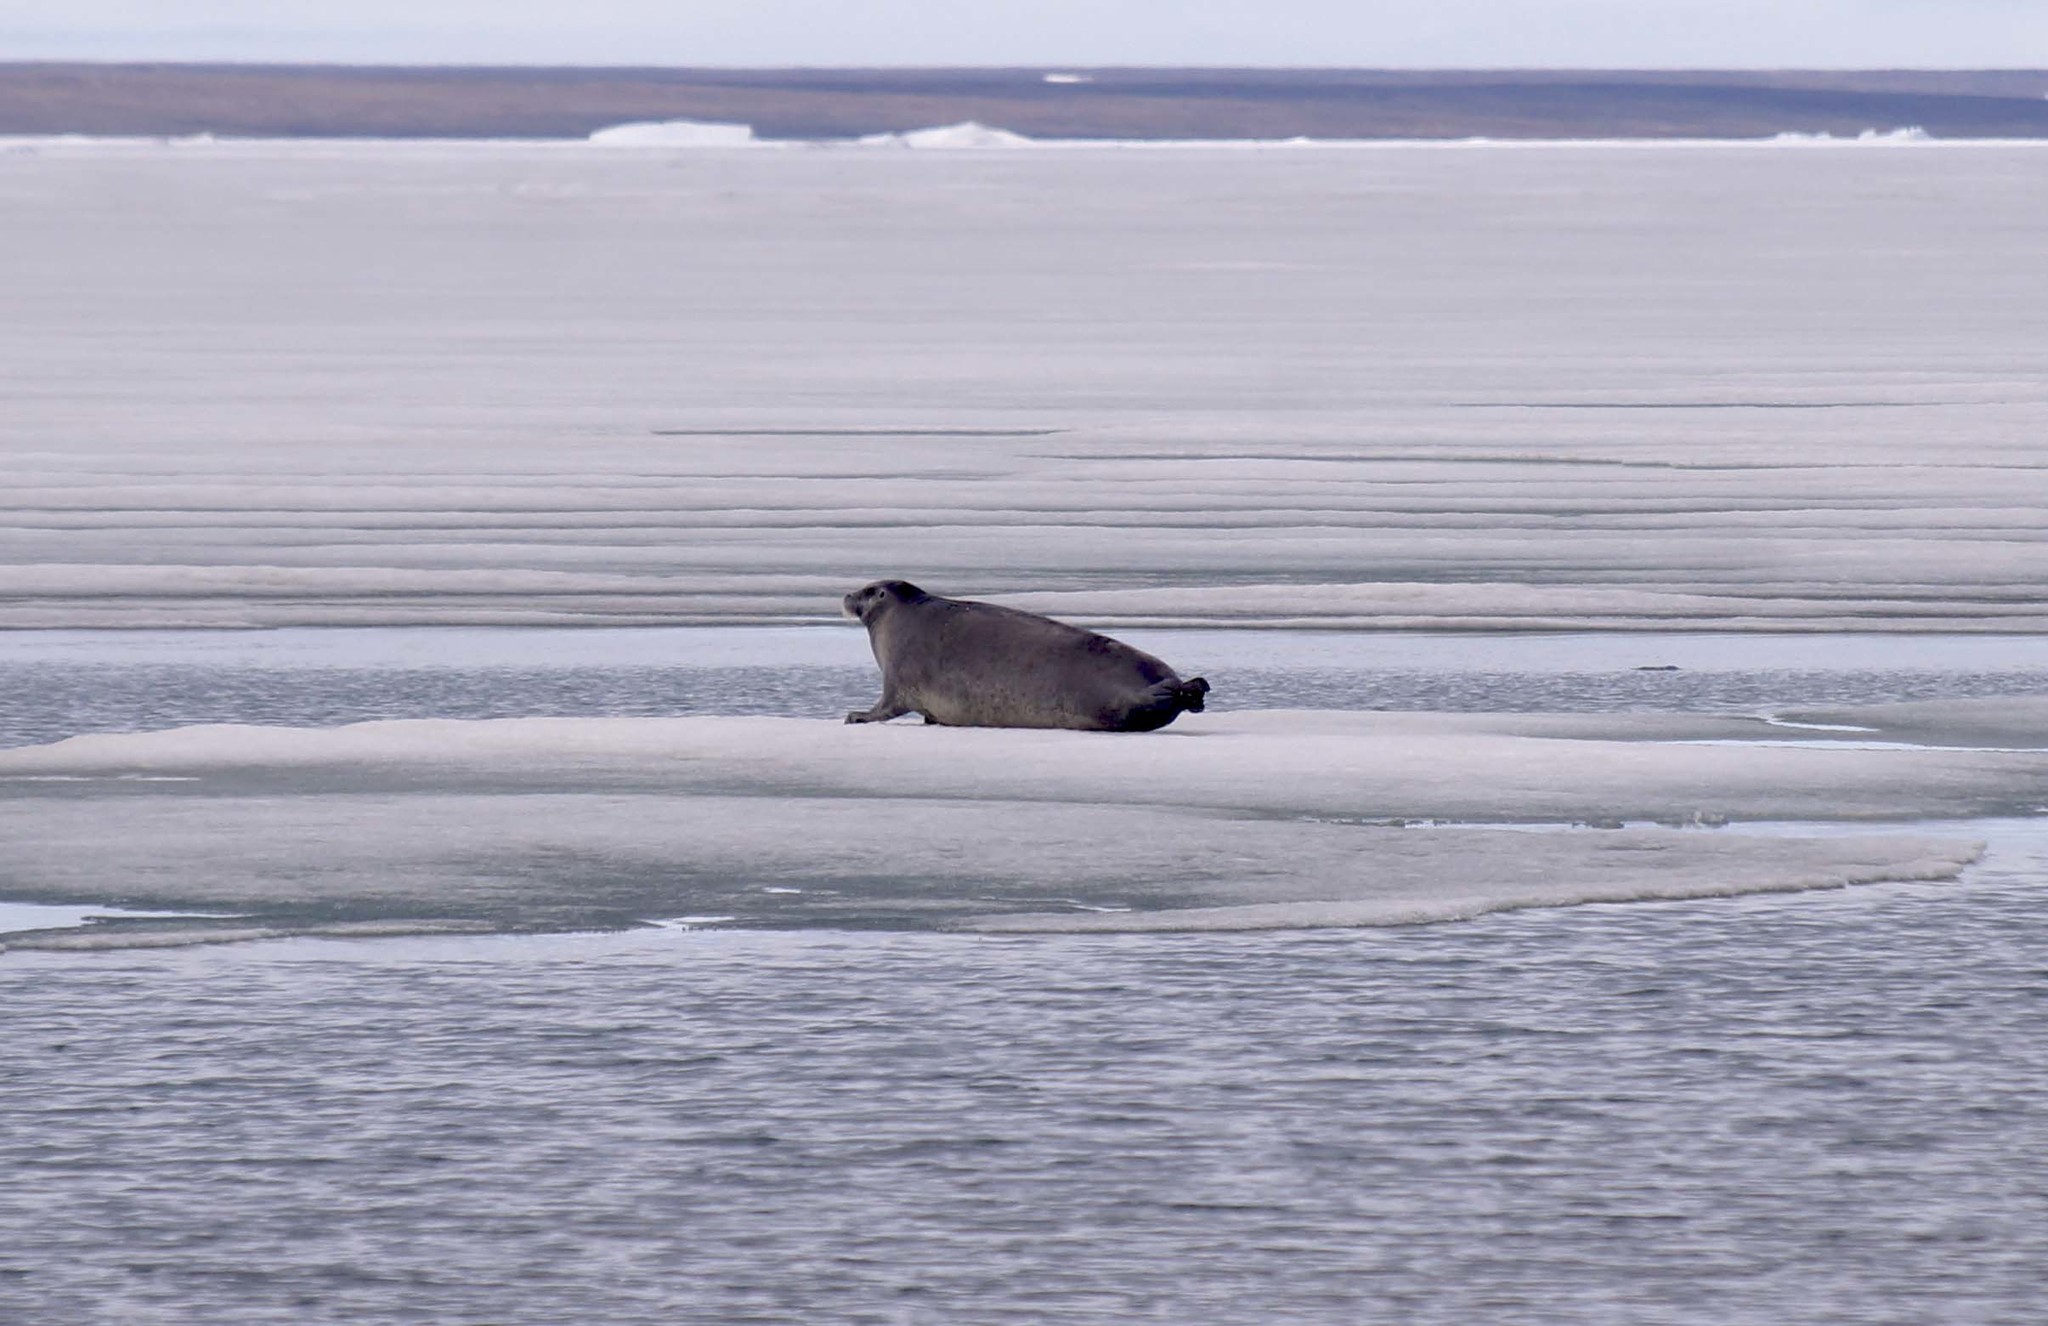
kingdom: Animalia
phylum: Chordata
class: Mammalia
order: Carnivora
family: Phocidae
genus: Erignathus
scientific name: Erignathus barbatus
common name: Bearded seal
